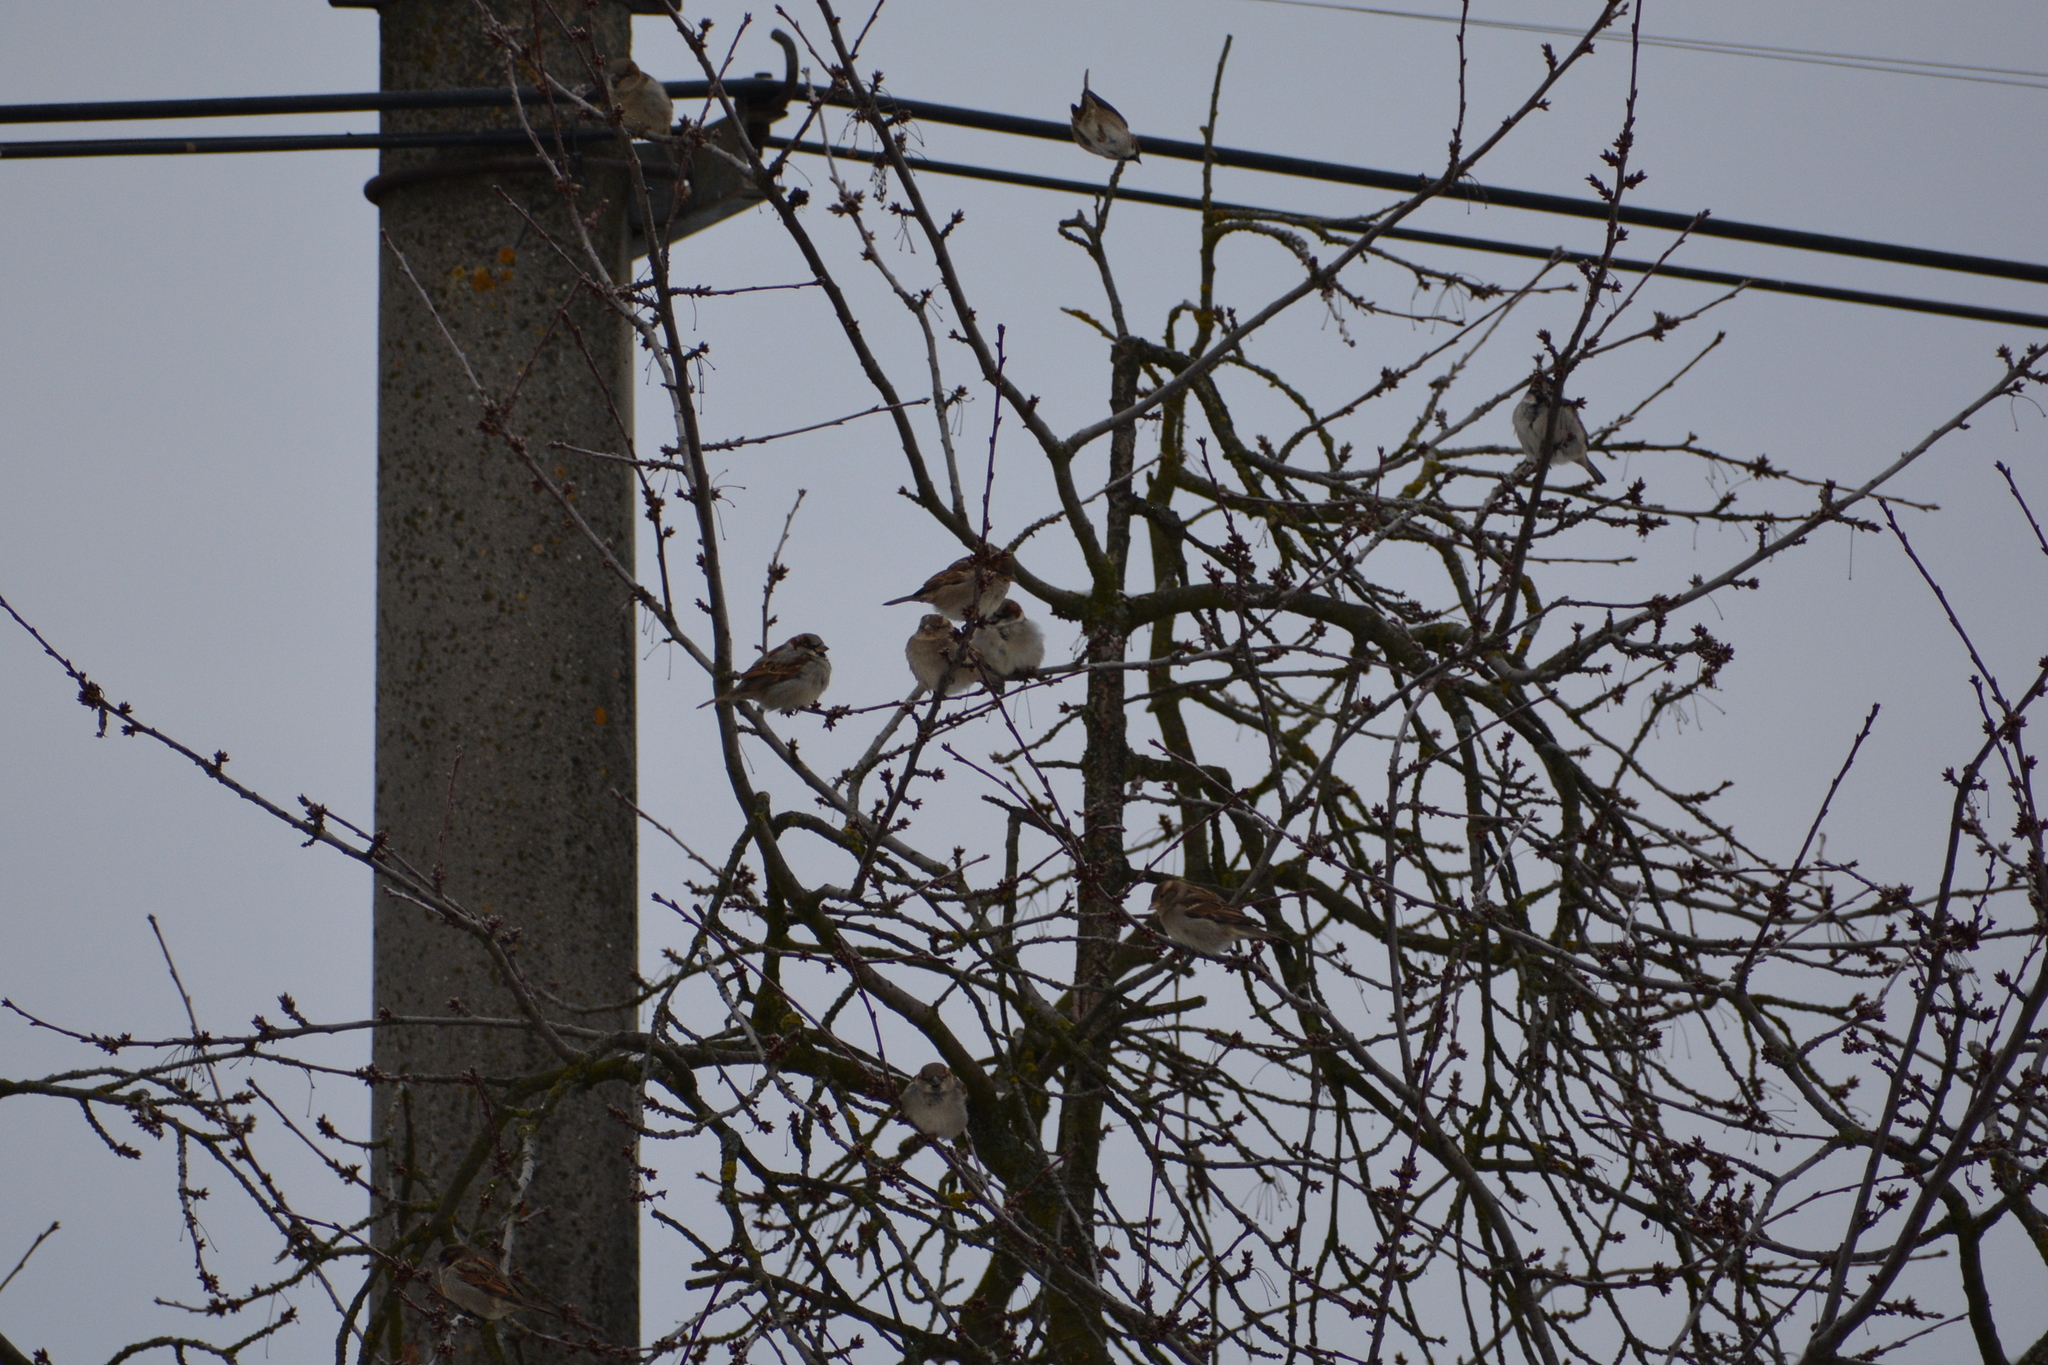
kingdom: Animalia
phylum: Chordata
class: Aves
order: Passeriformes
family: Passeridae
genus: Passer
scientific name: Passer domesticus
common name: House sparrow
